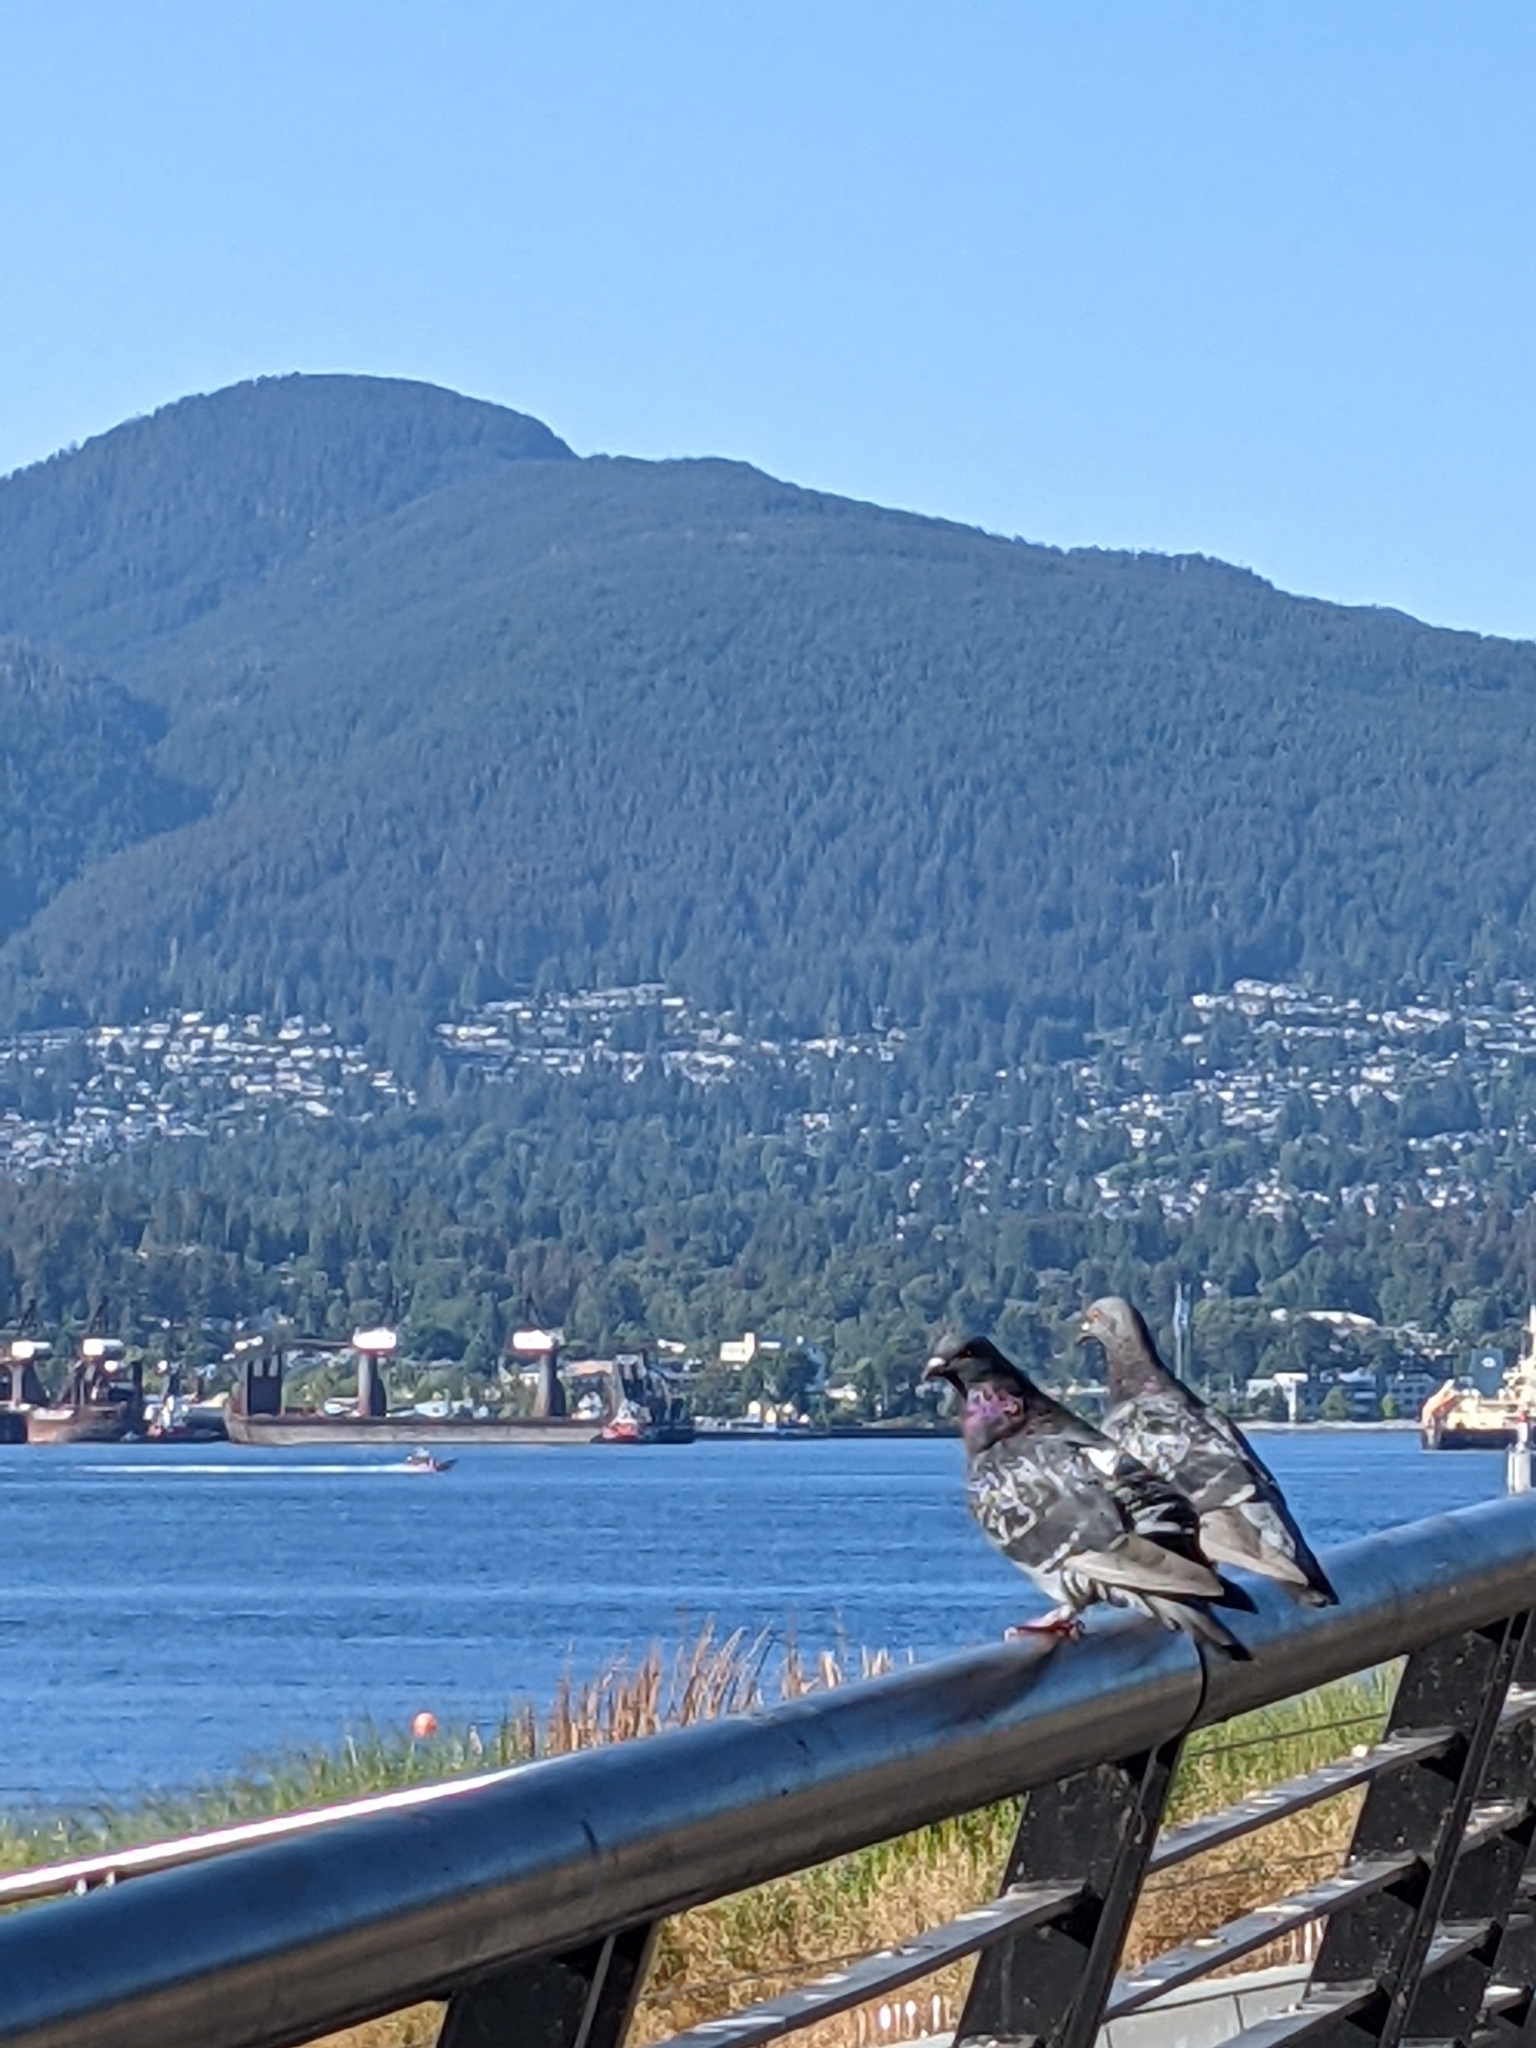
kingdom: Animalia
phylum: Chordata
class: Aves
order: Columbiformes
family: Columbidae
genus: Columba
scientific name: Columba livia
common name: Rock pigeon
